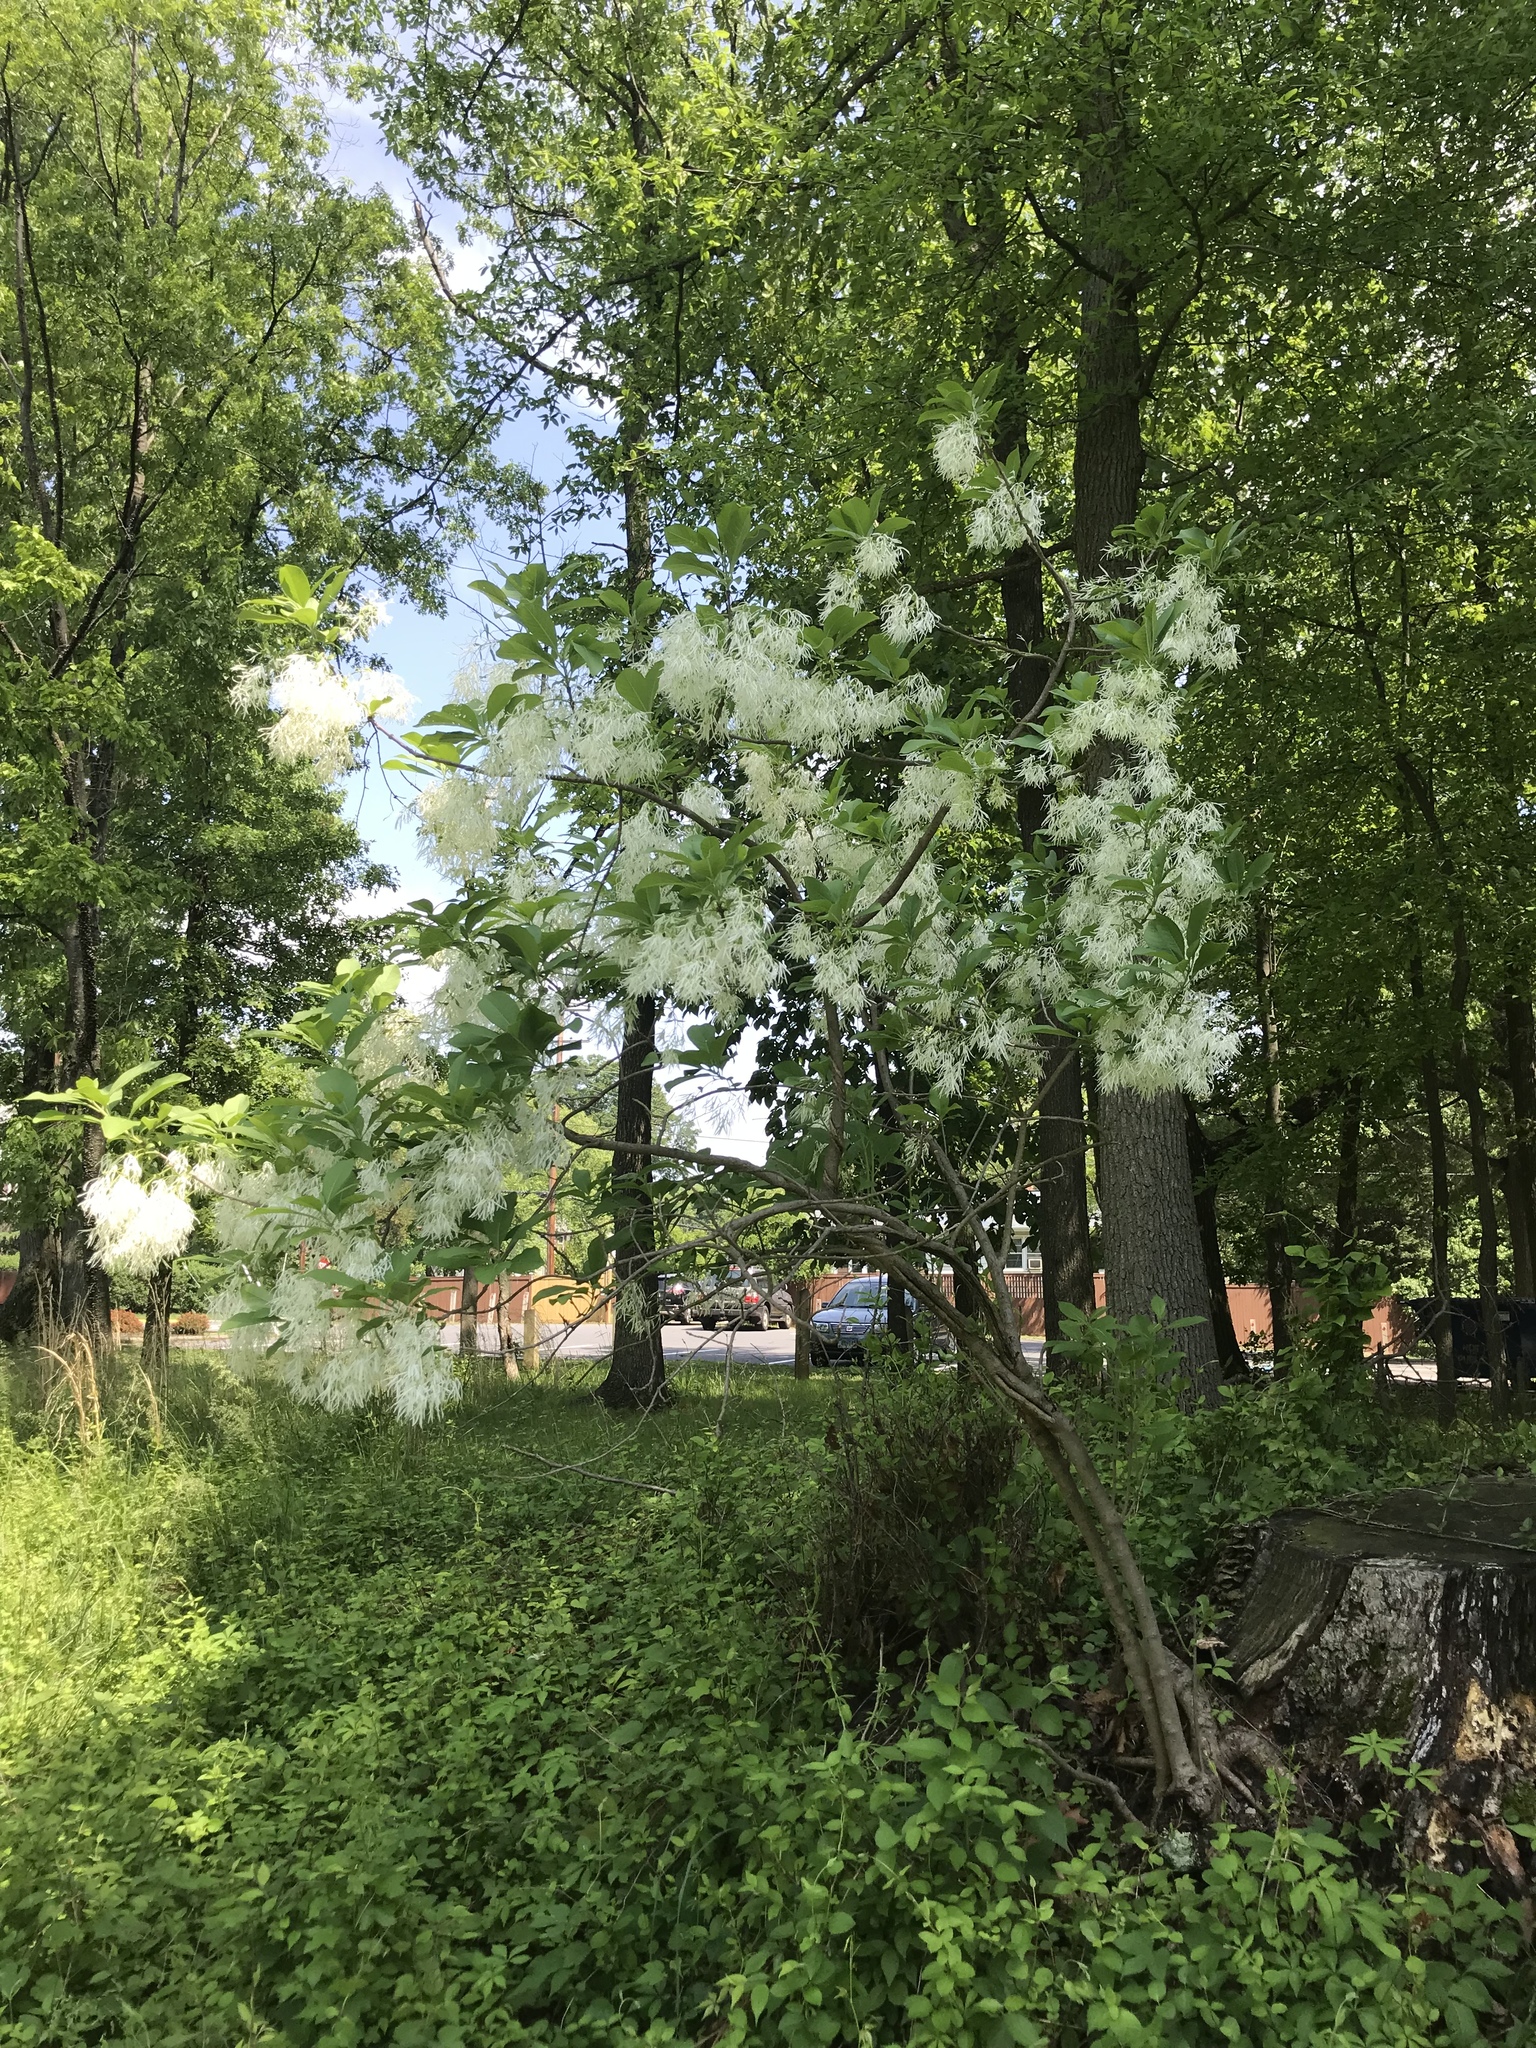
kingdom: Plantae
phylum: Tracheophyta
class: Magnoliopsida
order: Lamiales
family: Oleaceae
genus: Chionanthus
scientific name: Chionanthus virginicus
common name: American fringetree
